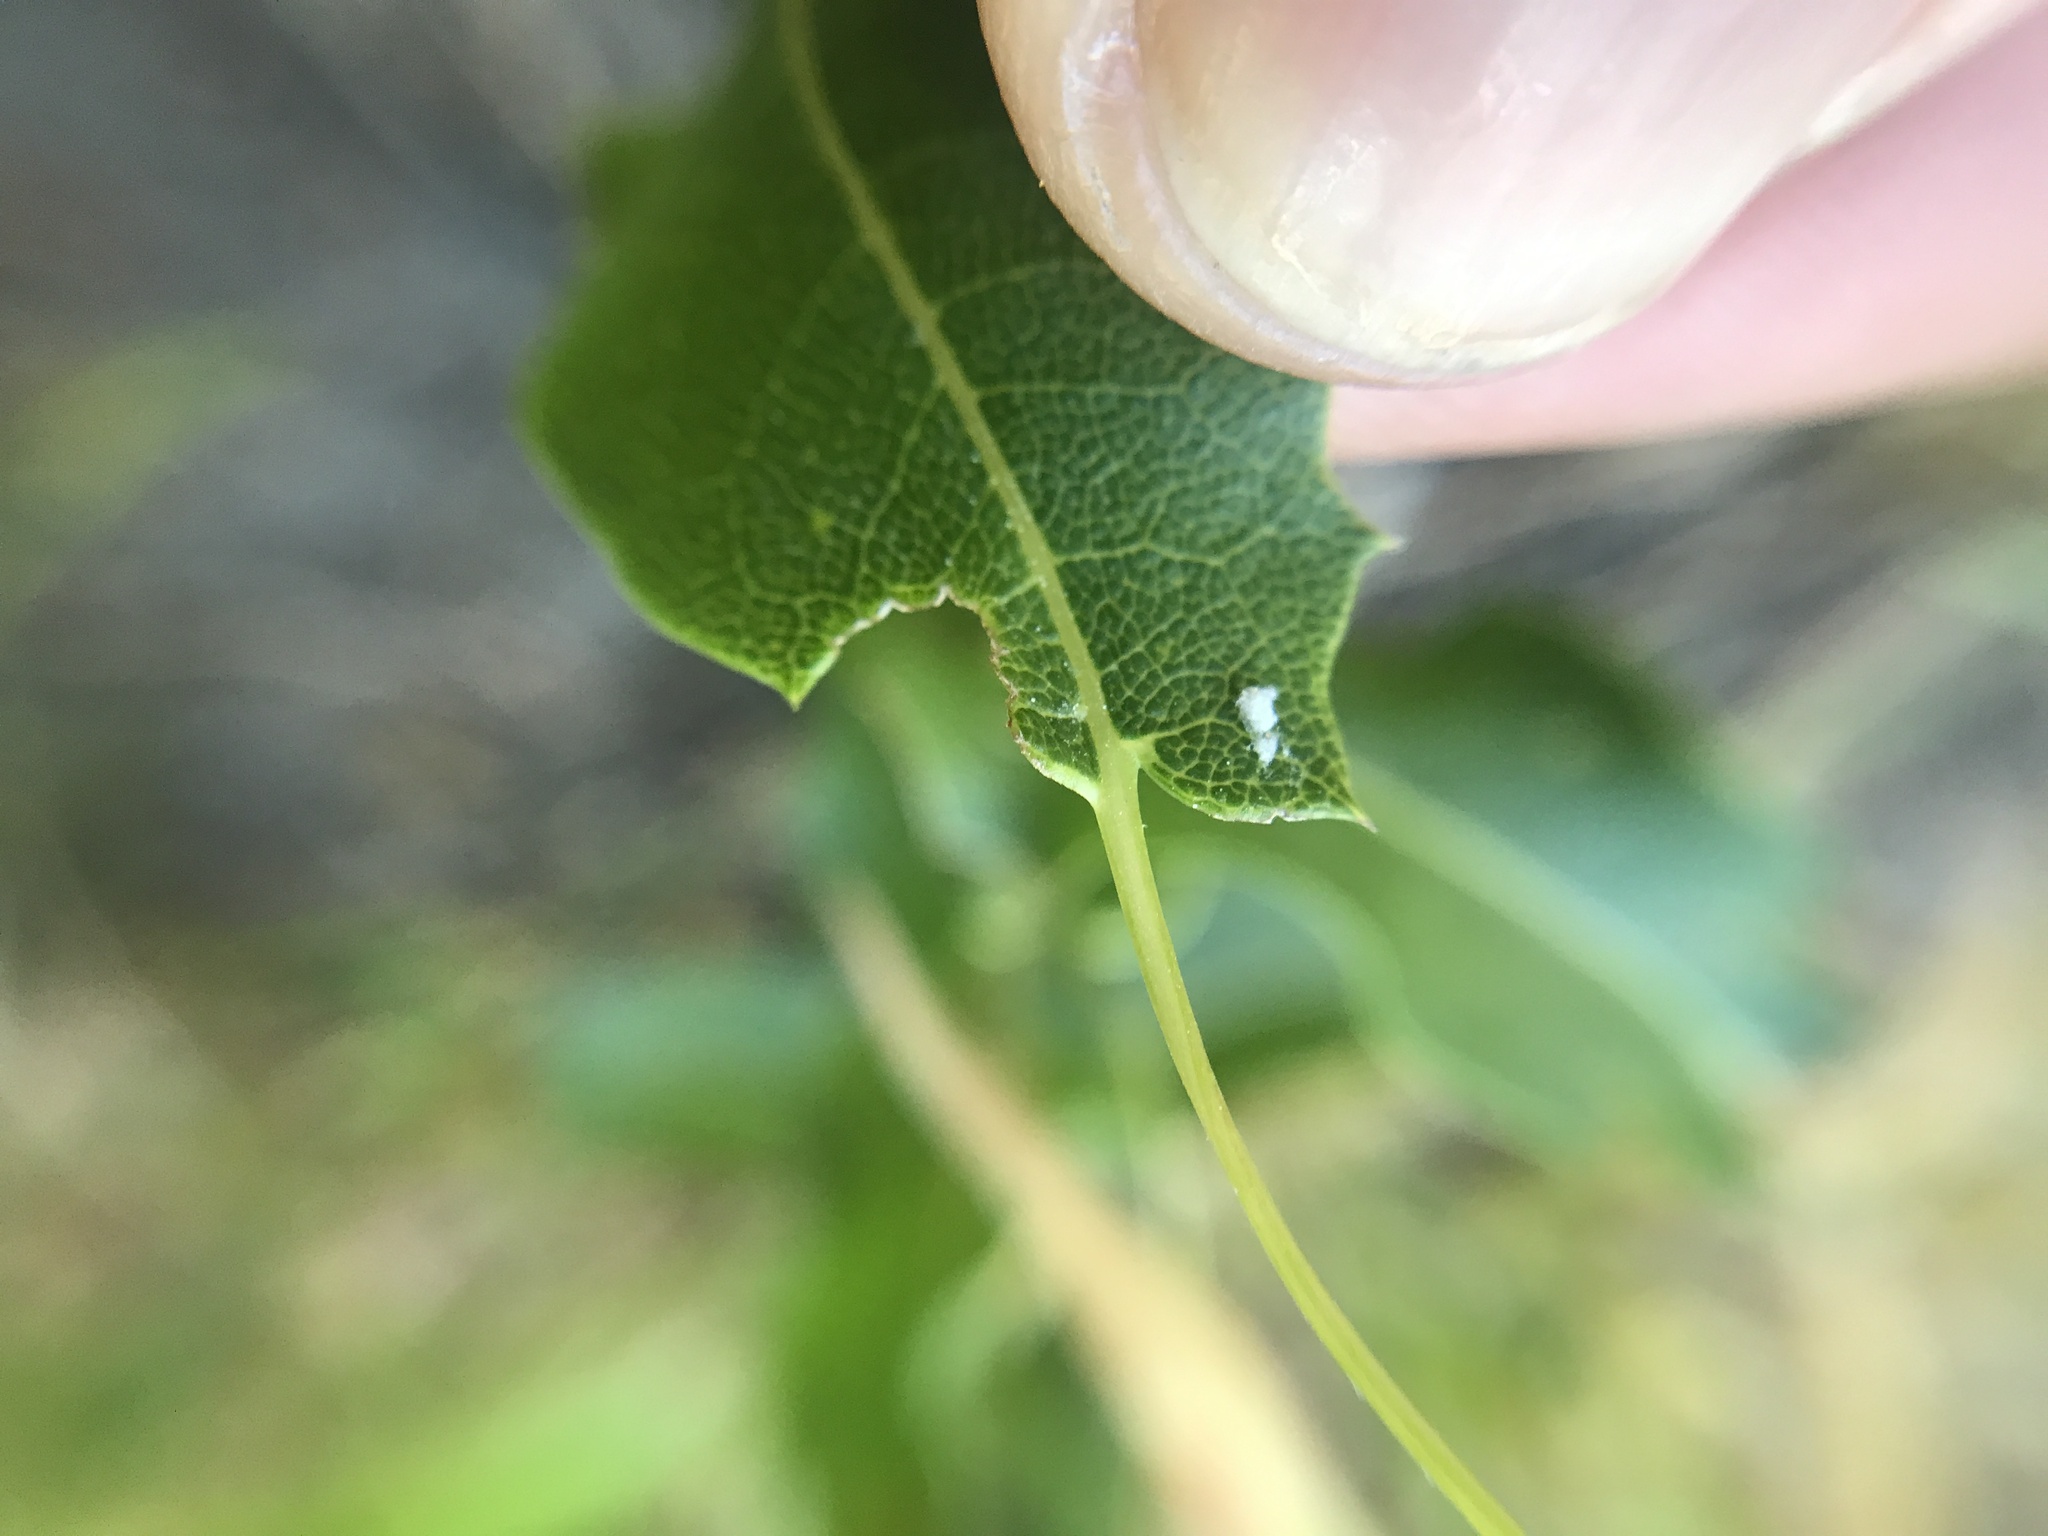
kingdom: Plantae
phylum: Tracheophyta
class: Magnoliopsida
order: Asterales
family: Asteraceae
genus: Mutisia
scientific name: Mutisia spinosa
